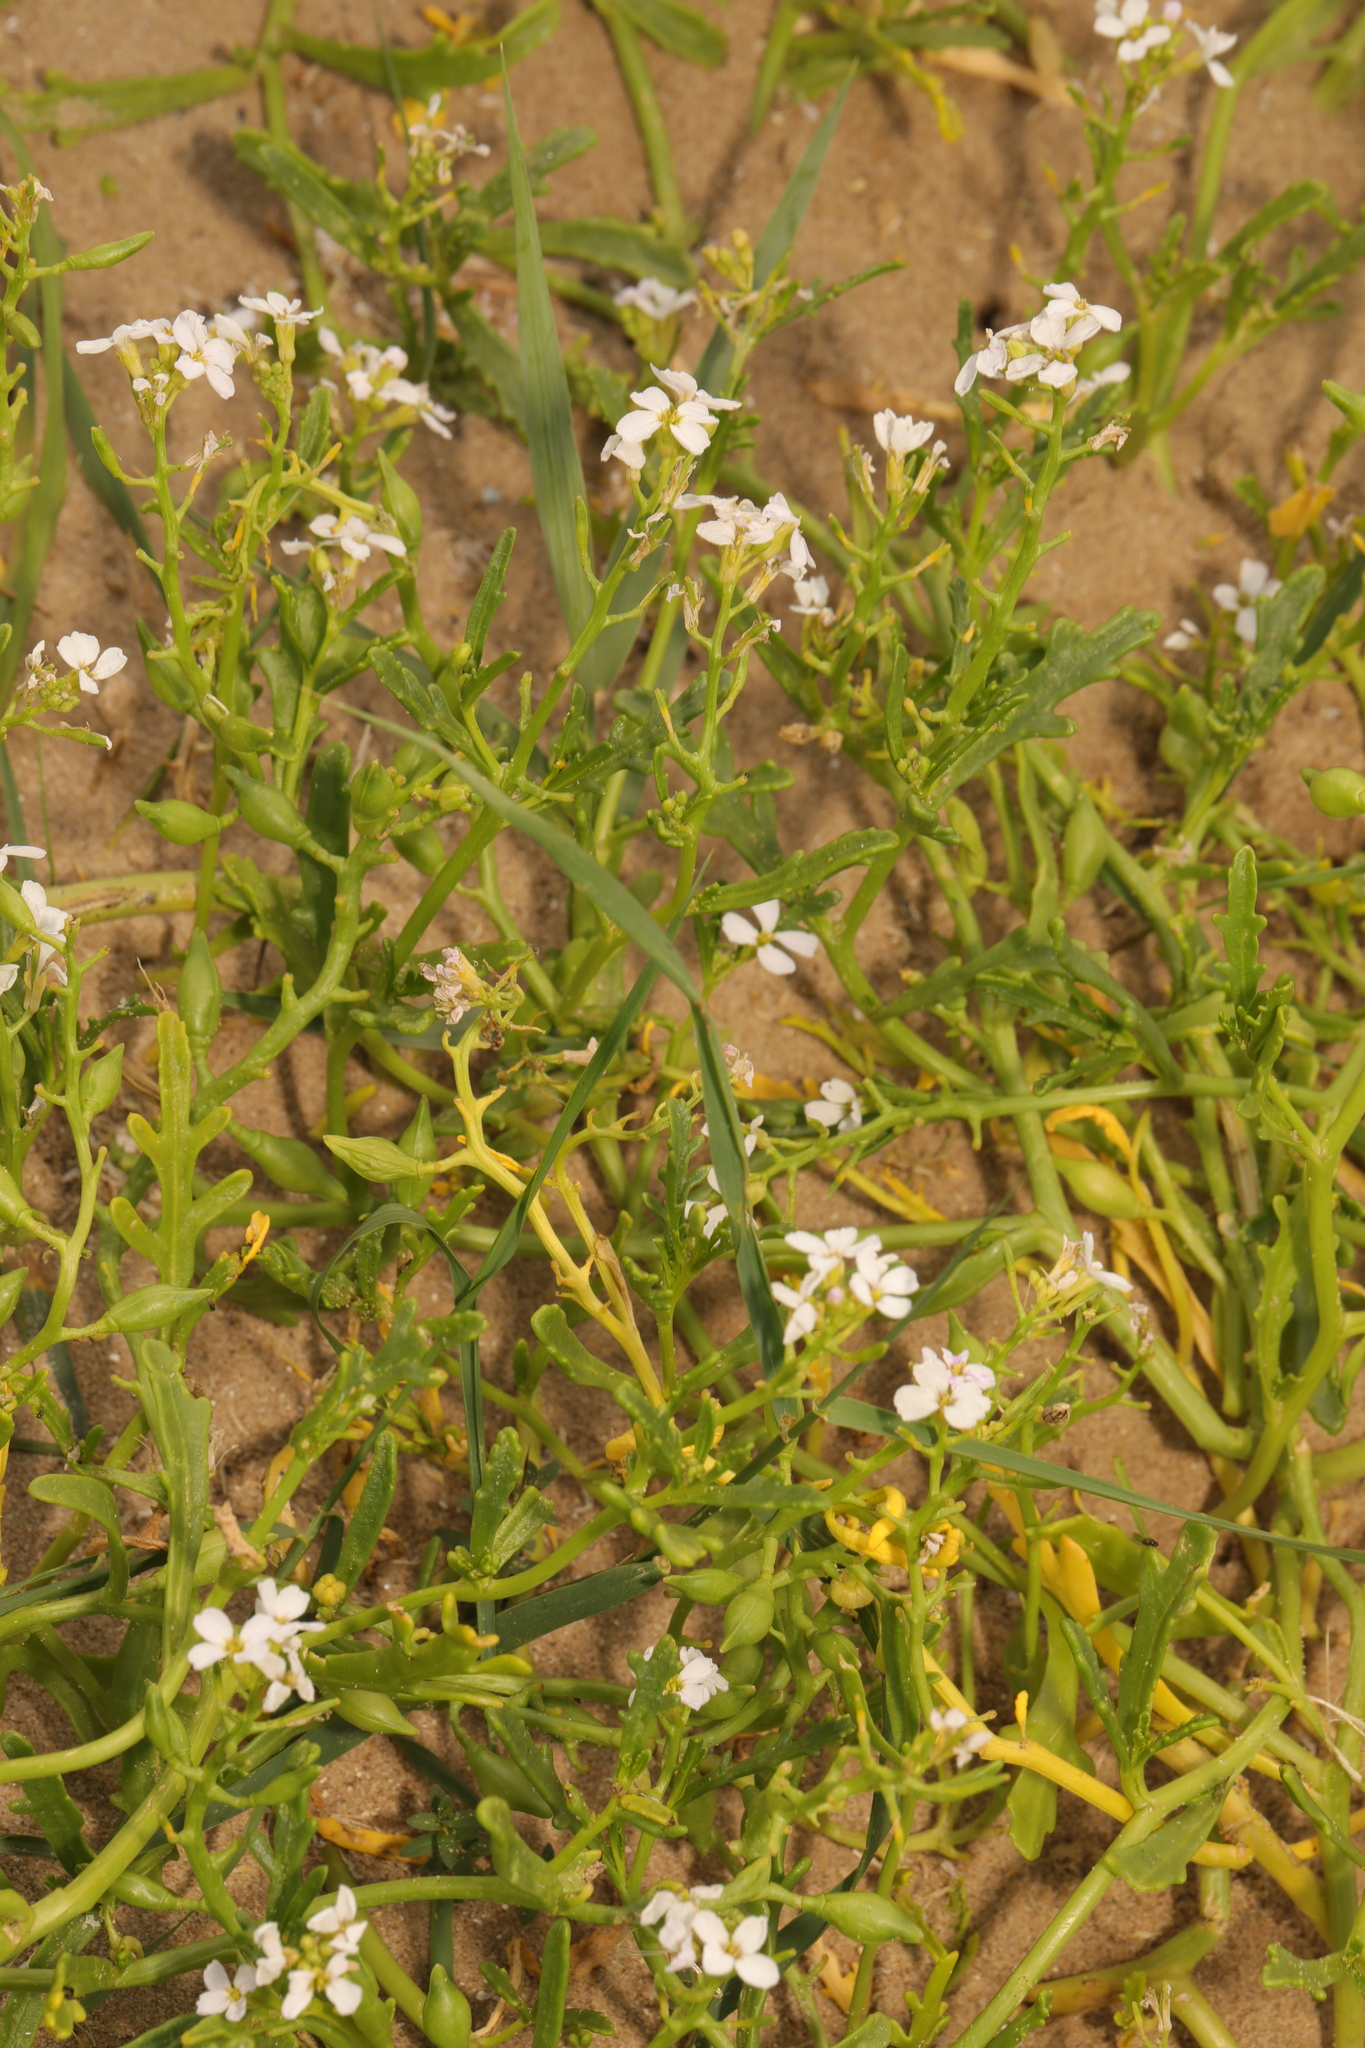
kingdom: Plantae
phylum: Tracheophyta
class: Magnoliopsida
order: Brassicales
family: Brassicaceae
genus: Cakile
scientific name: Cakile maritima
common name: Sea rocket
